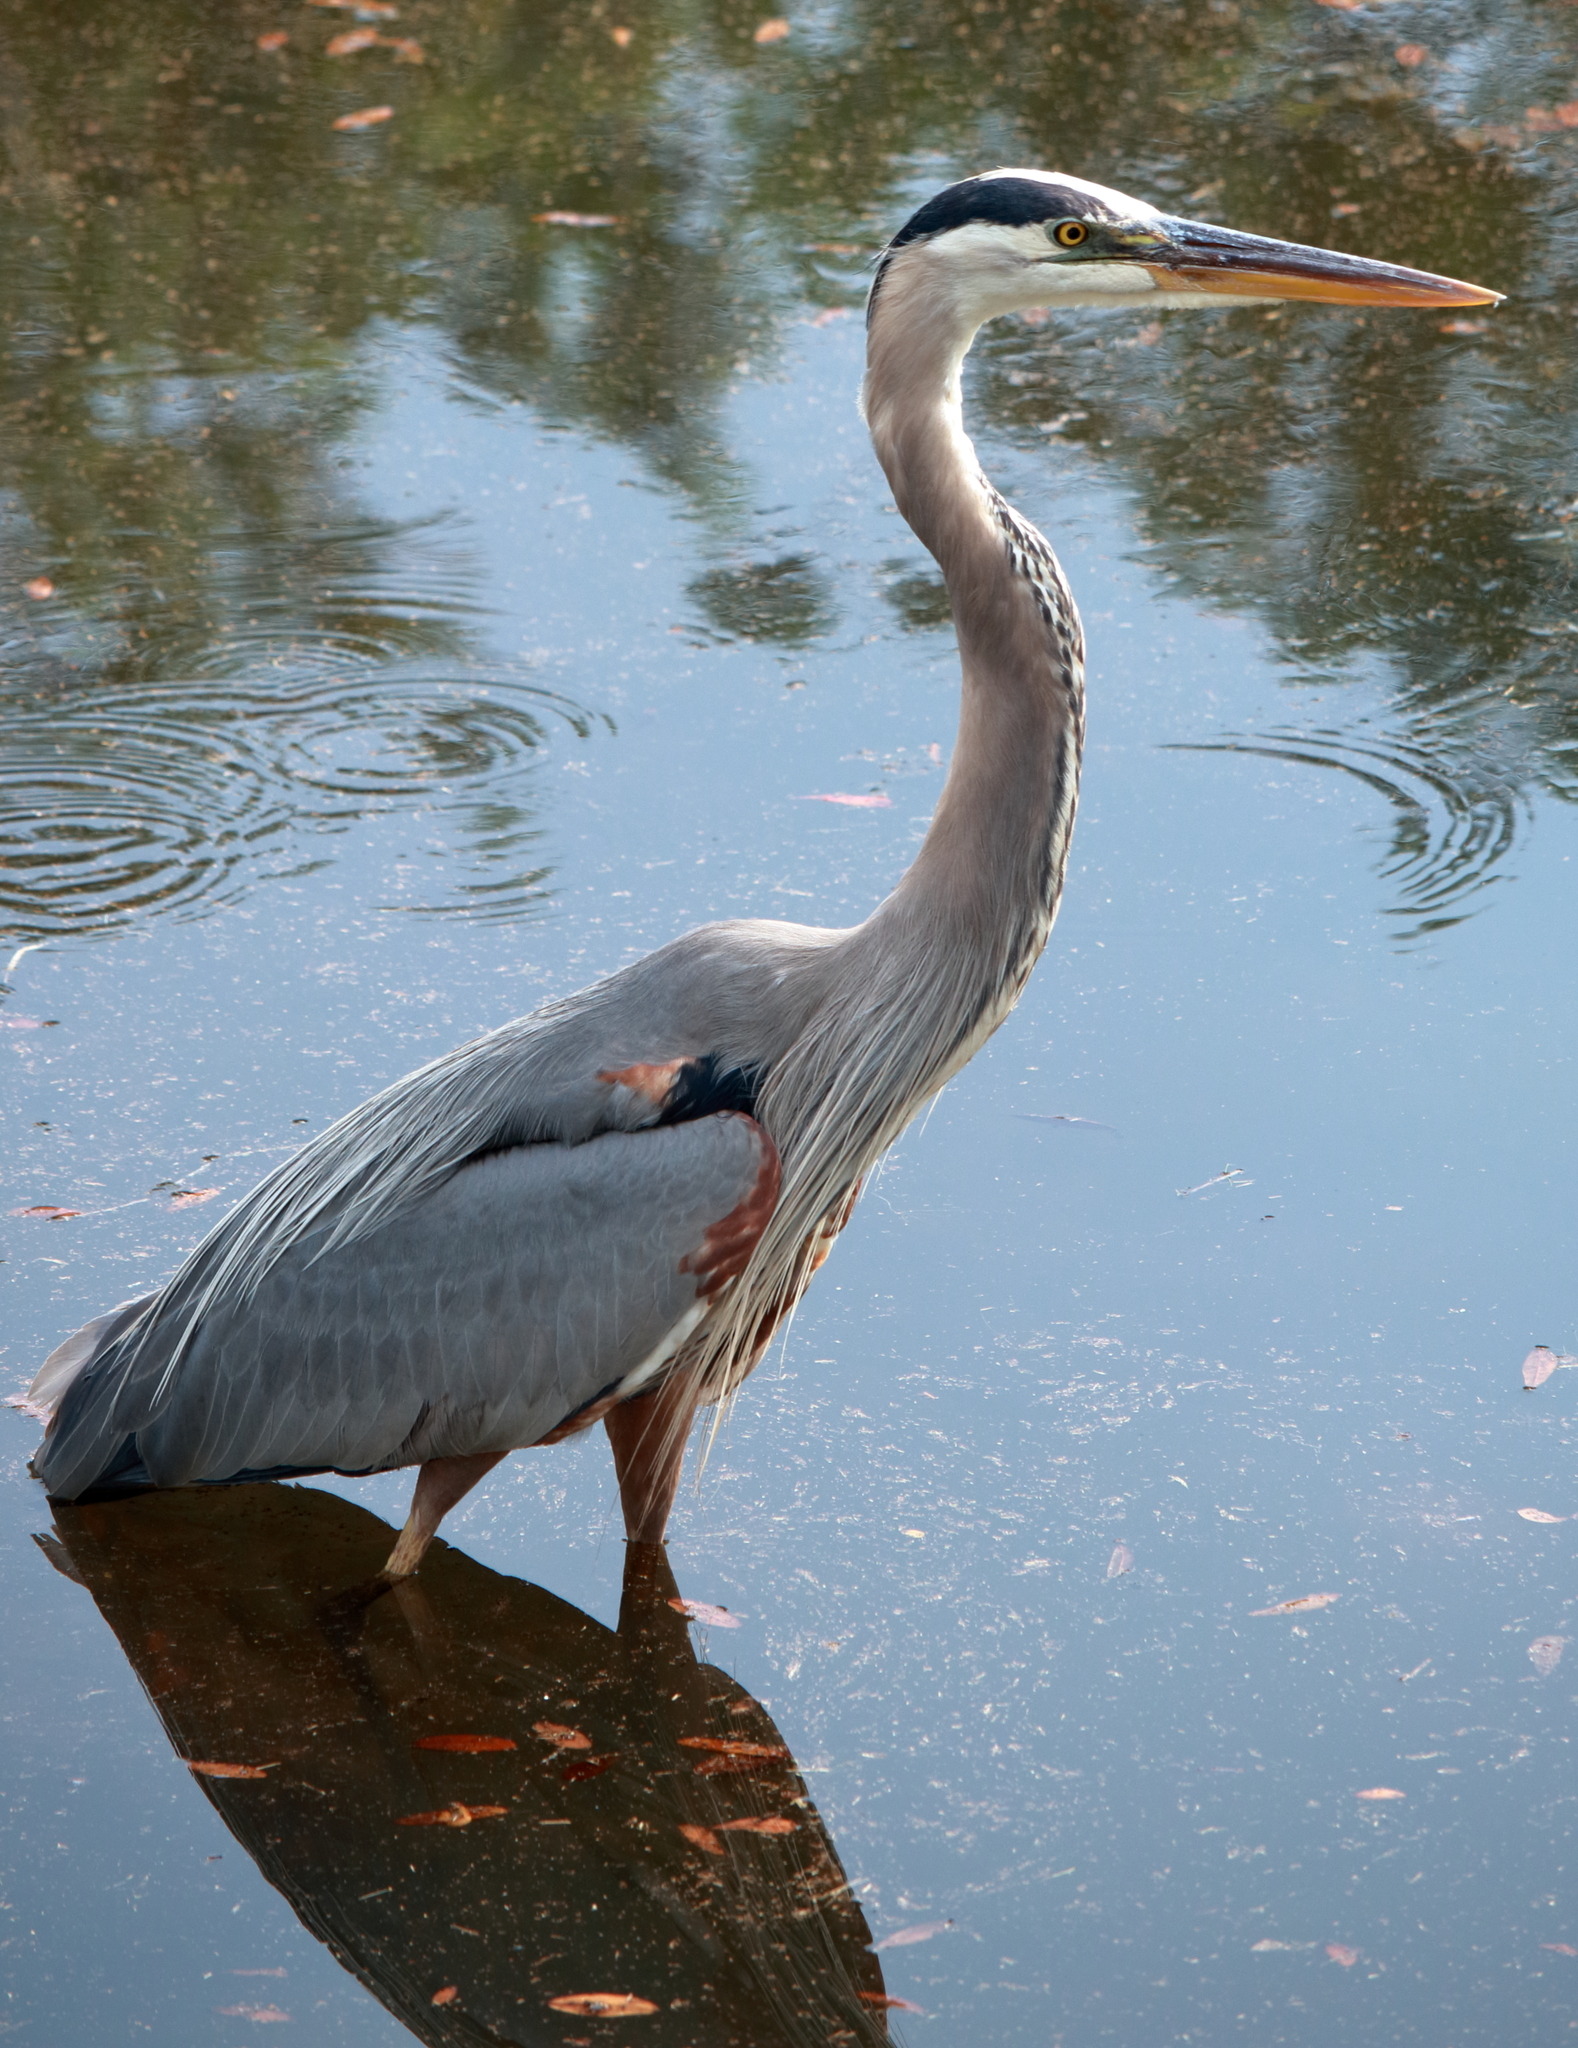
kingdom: Animalia
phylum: Chordata
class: Aves
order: Pelecaniformes
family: Ardeidae
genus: Ardea
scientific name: Ardea herodias
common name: Great blue heron
